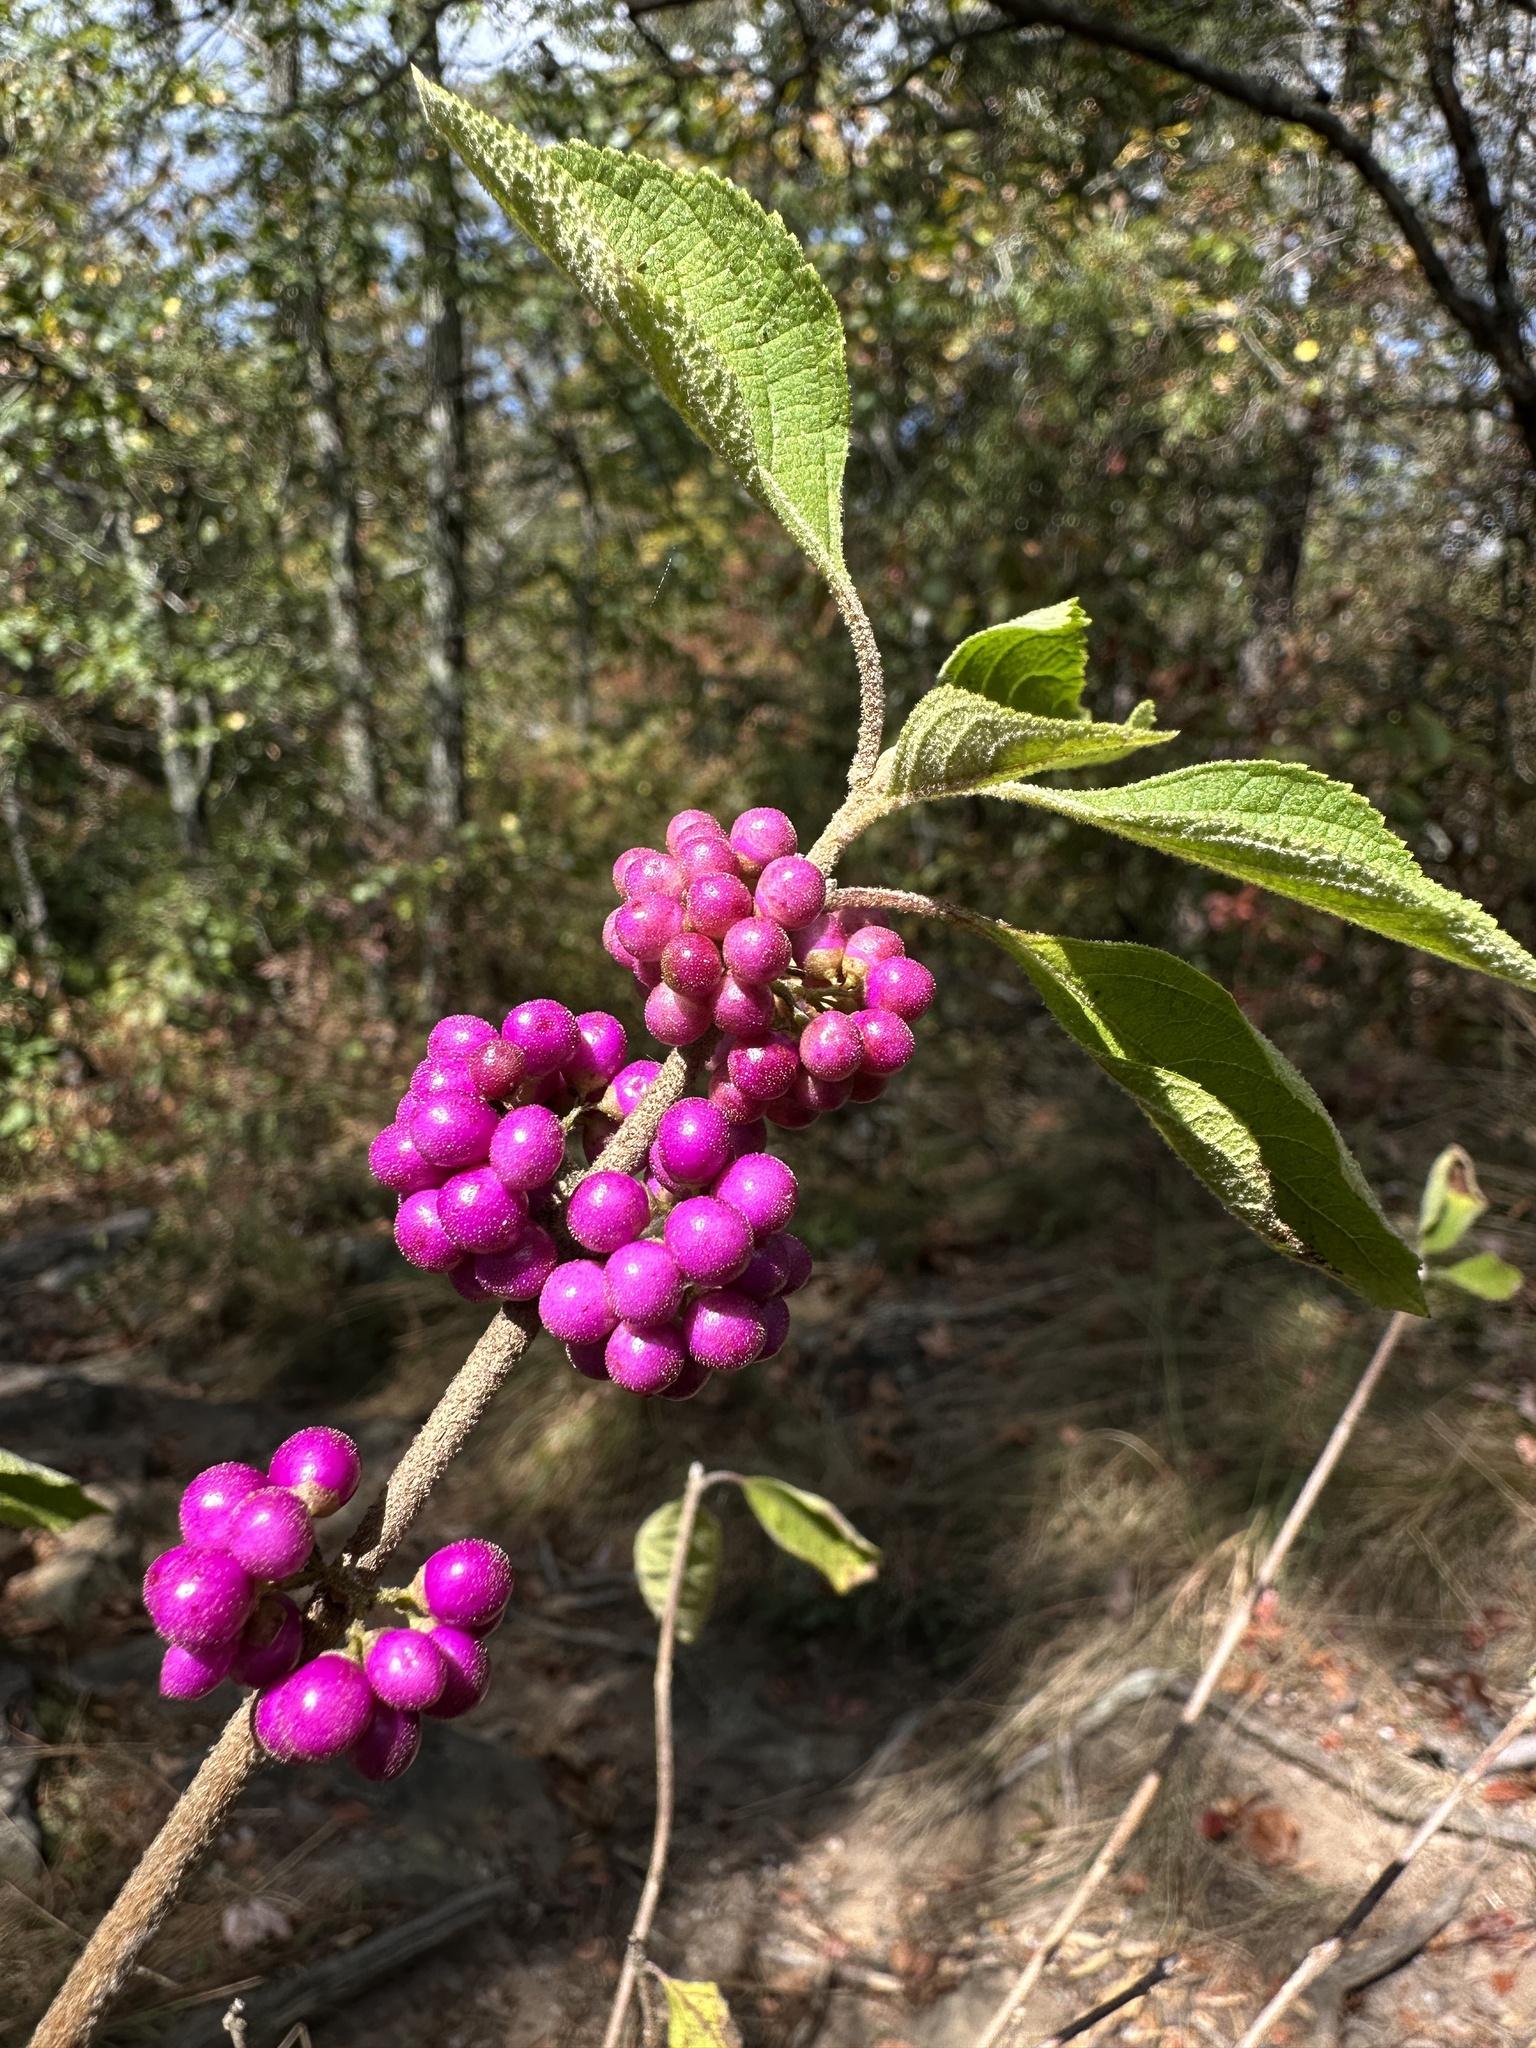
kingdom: Plantae
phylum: Tracheophyta
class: Magnoliopsida
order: Lamiales
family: Lamiaceae
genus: Callicarpa
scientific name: Callicarpa americana
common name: American beautyberry
